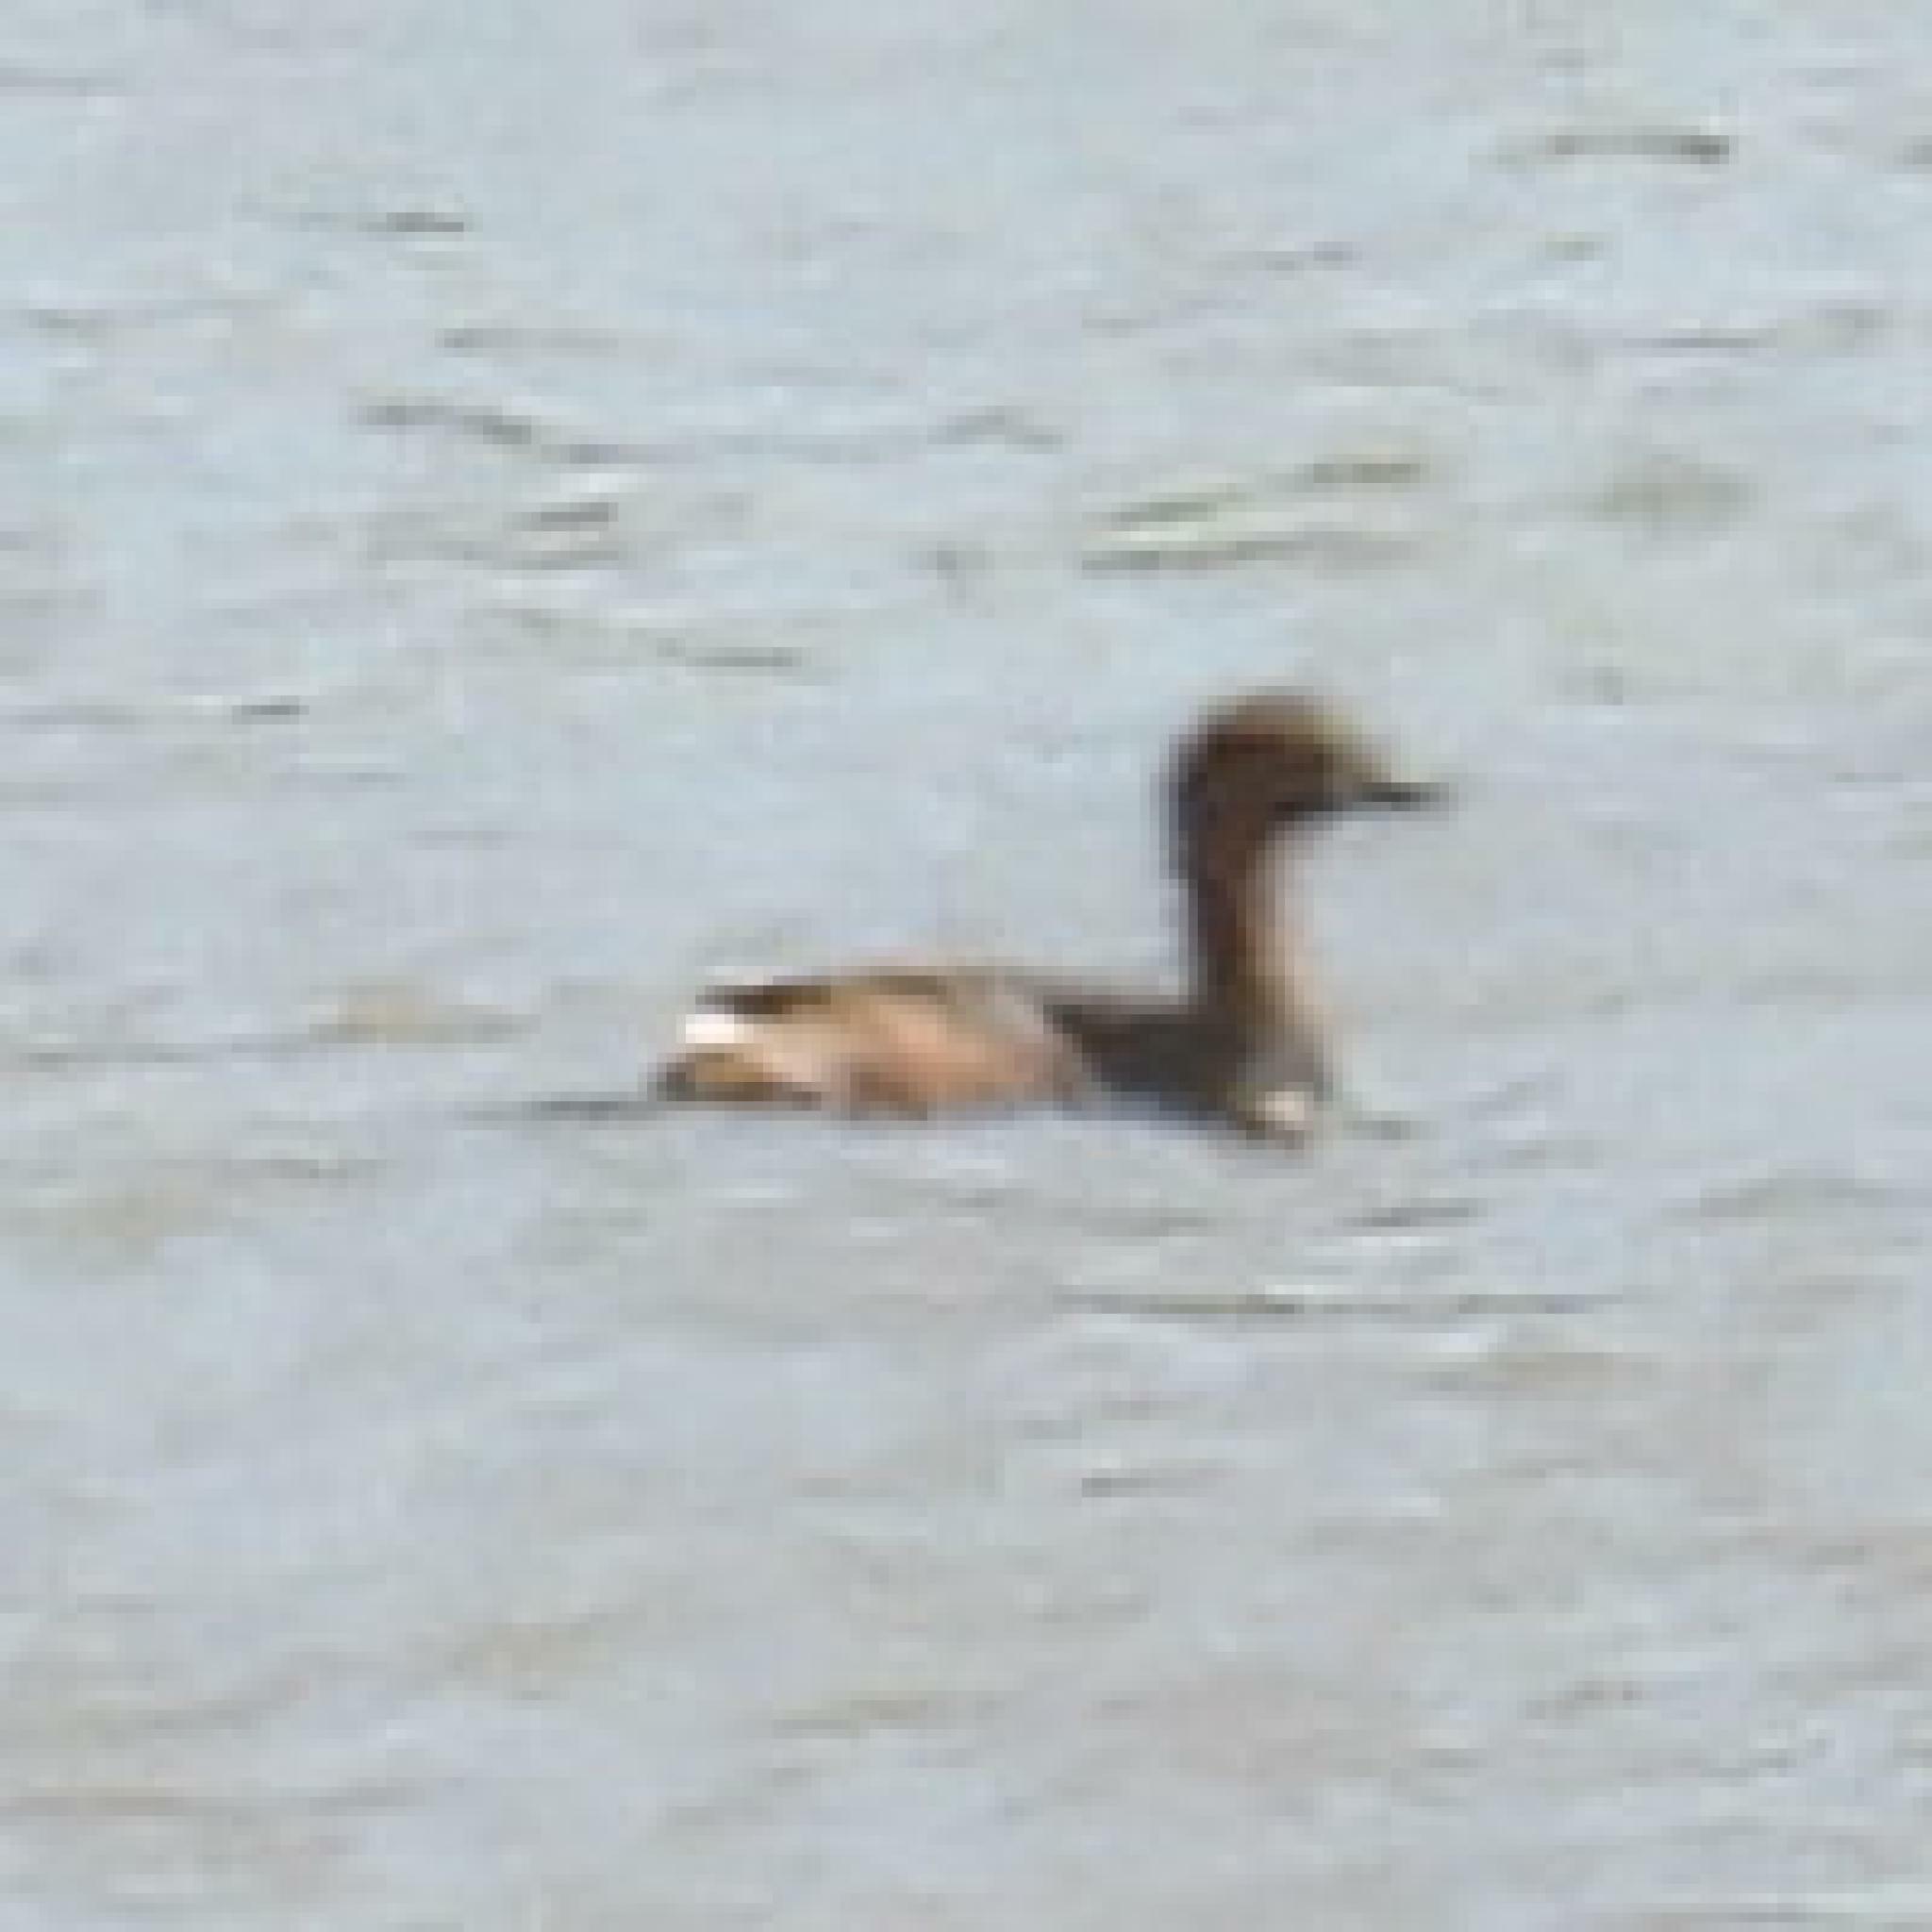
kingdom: Animalia
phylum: Chordata
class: Aves
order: Podicipediformes
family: Podicipedidae
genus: Tachybaptus
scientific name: Tachybaptus ruficollis
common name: Little grebe
